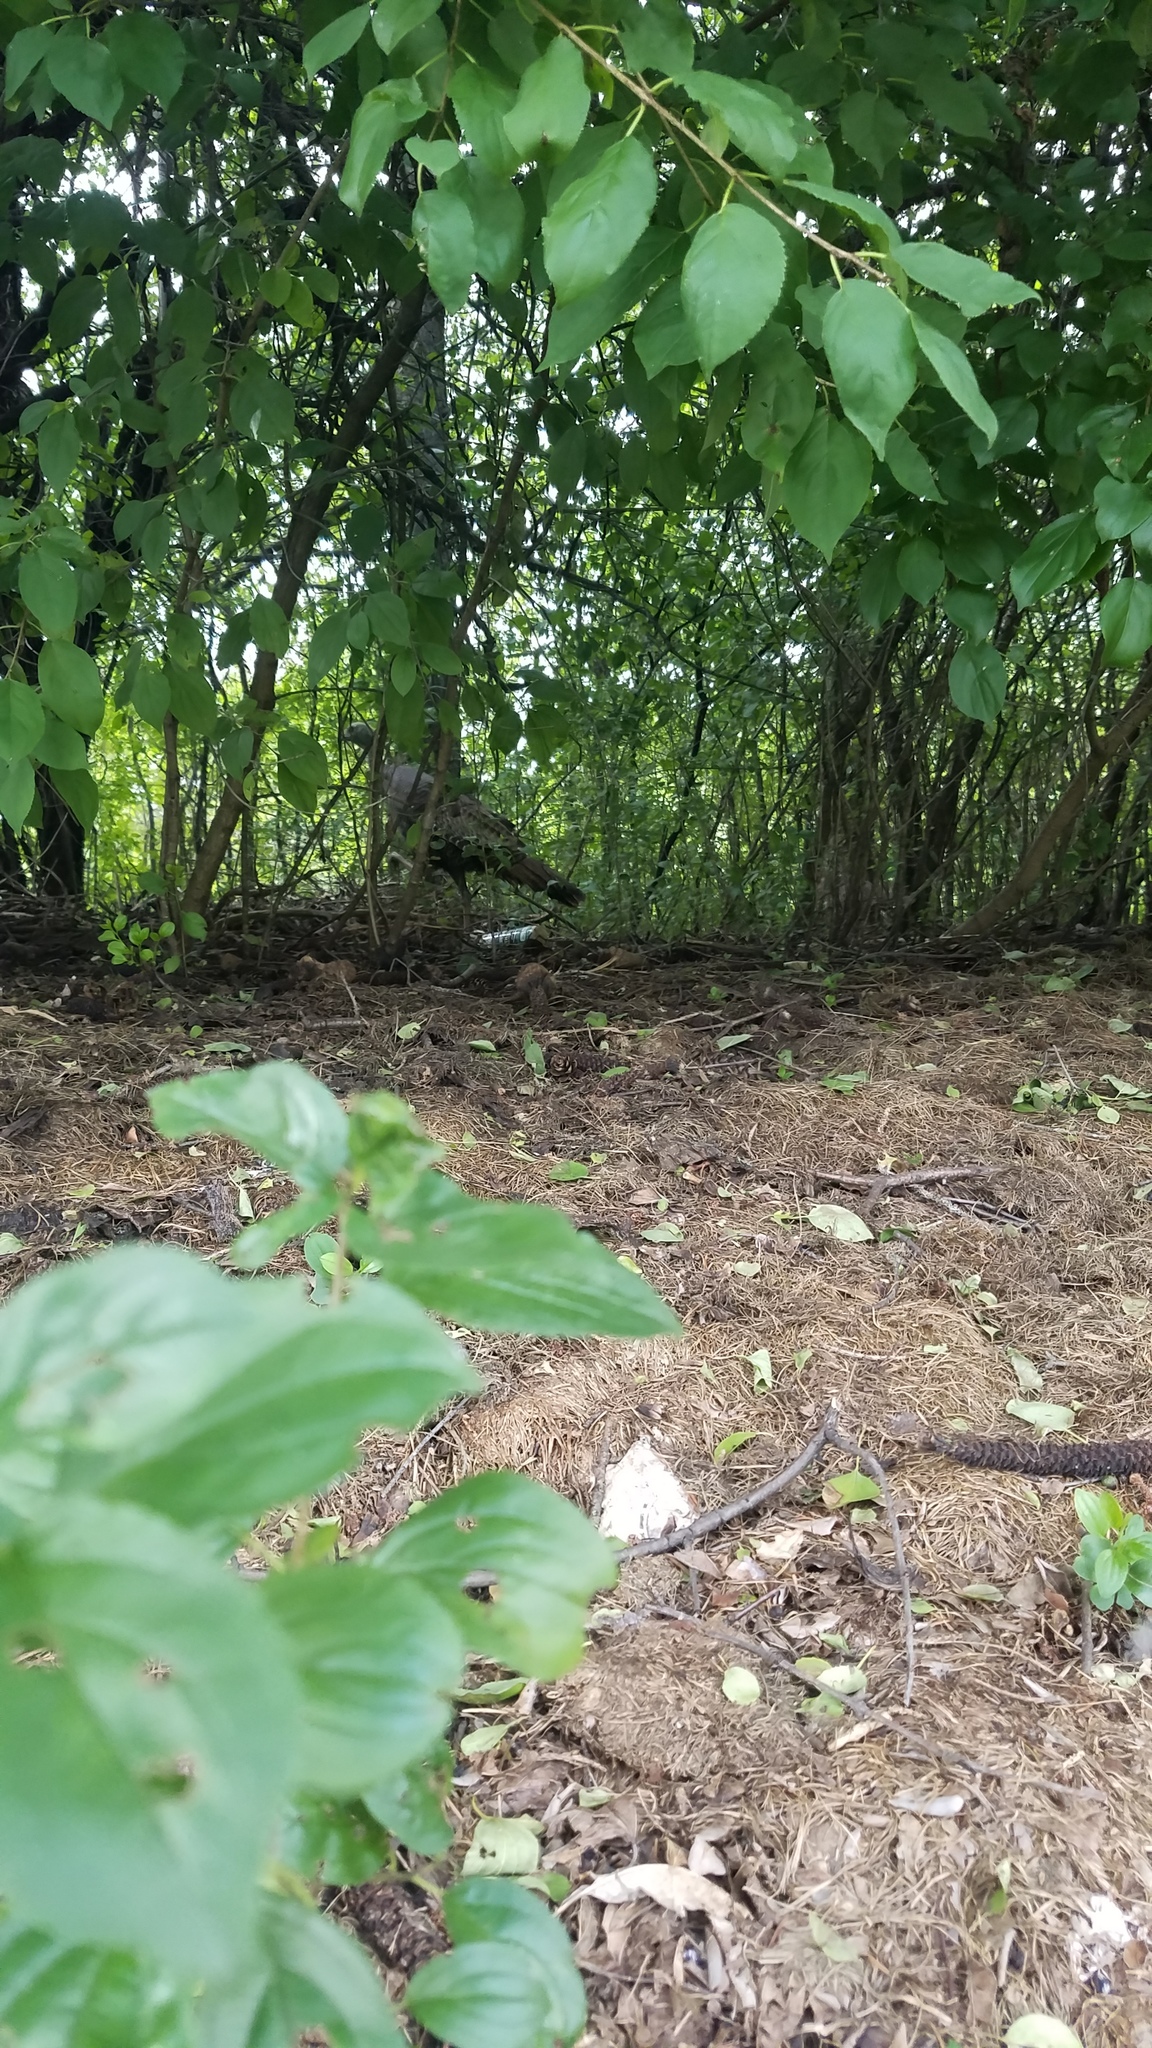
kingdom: Animalia
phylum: Chordata
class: Aves
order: Galliformes
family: Phasianidae
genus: Meleagris
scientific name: Meleagris gallopavo
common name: Wild turkey
